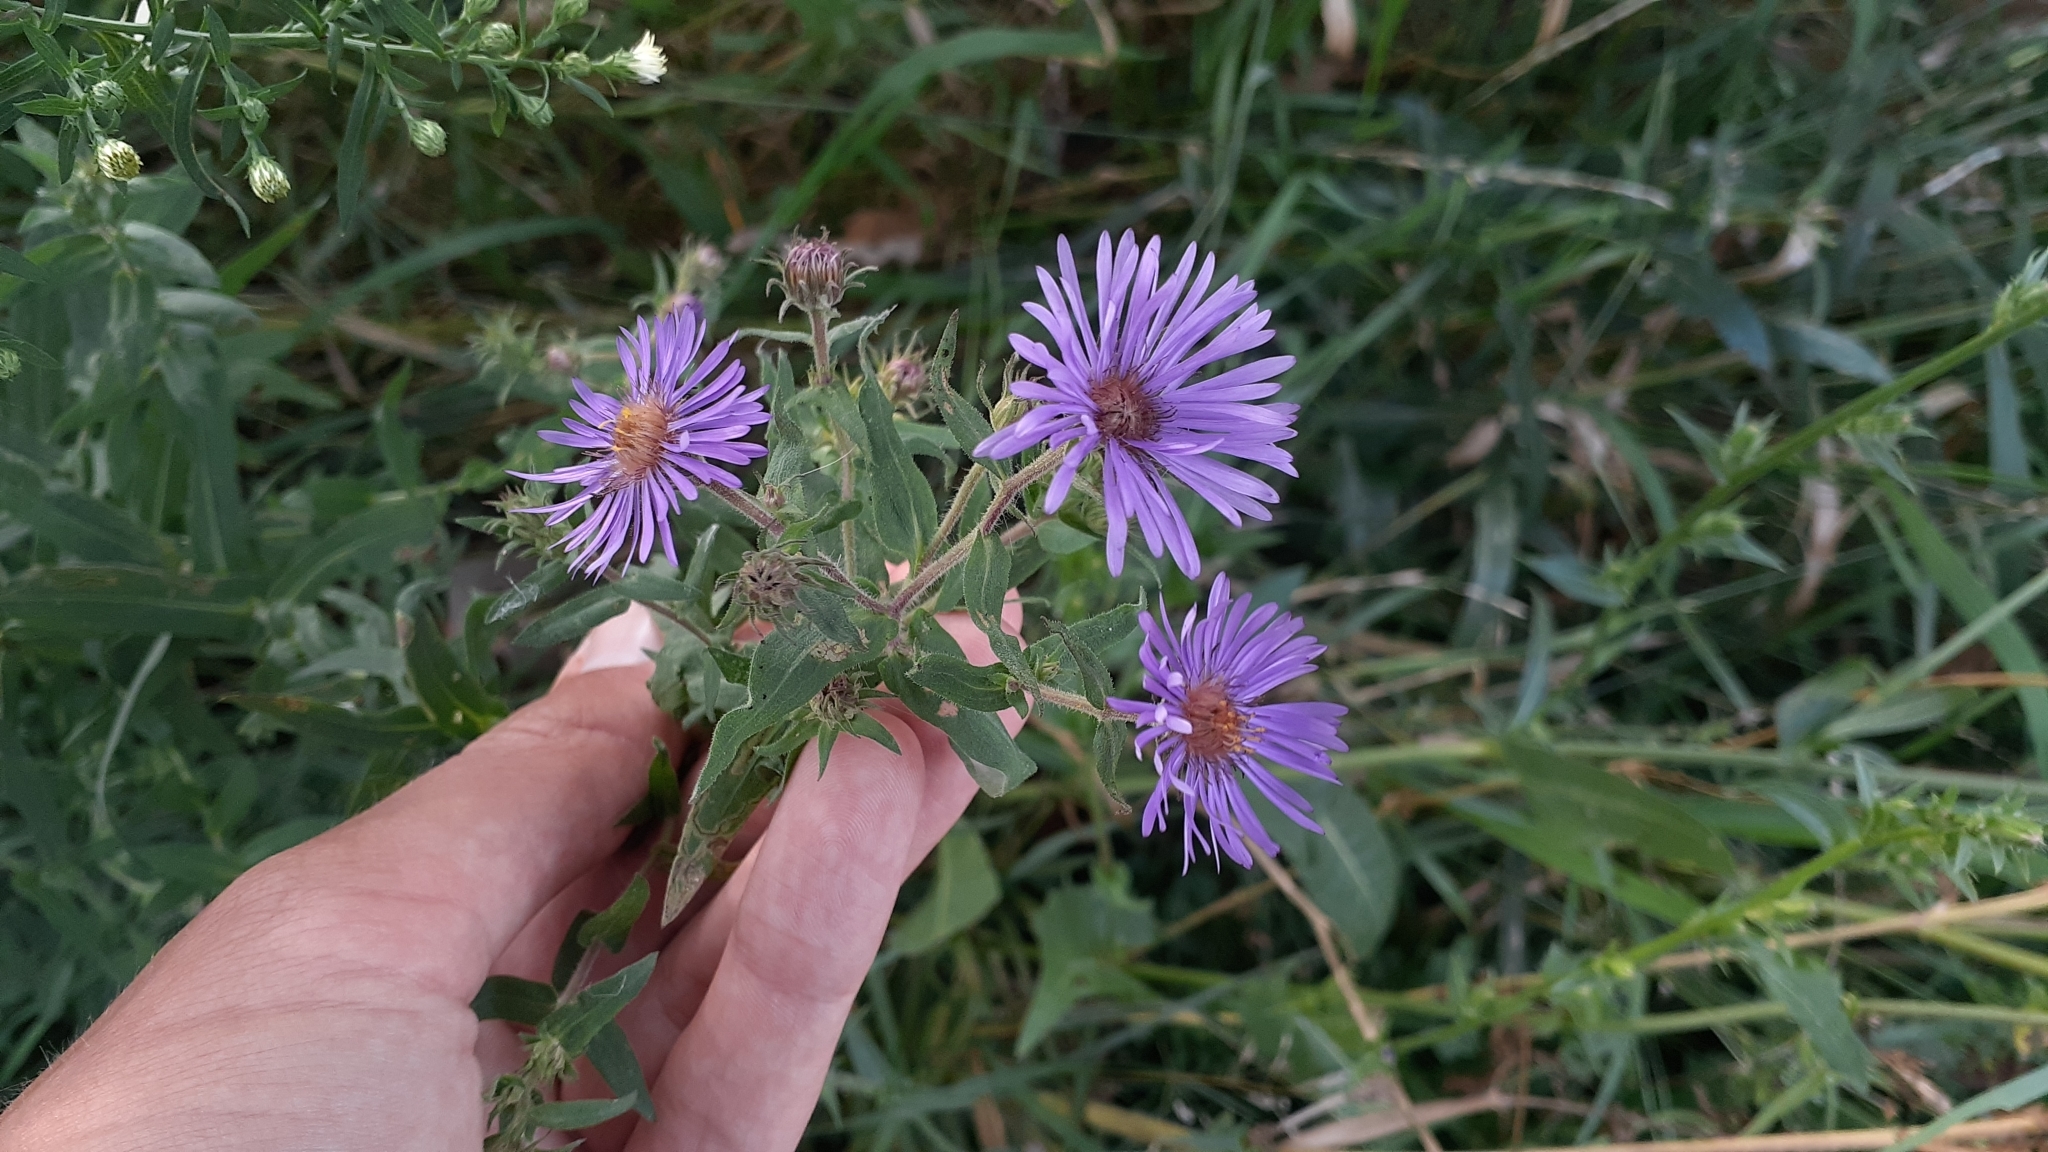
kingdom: Plantae
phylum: Tracheophyta
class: Magnoliopsida
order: Asterales
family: Asteraceae
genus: Symphyotrichum
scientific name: Symphyotrichum novae-angliae
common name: Michaelmas daisy
